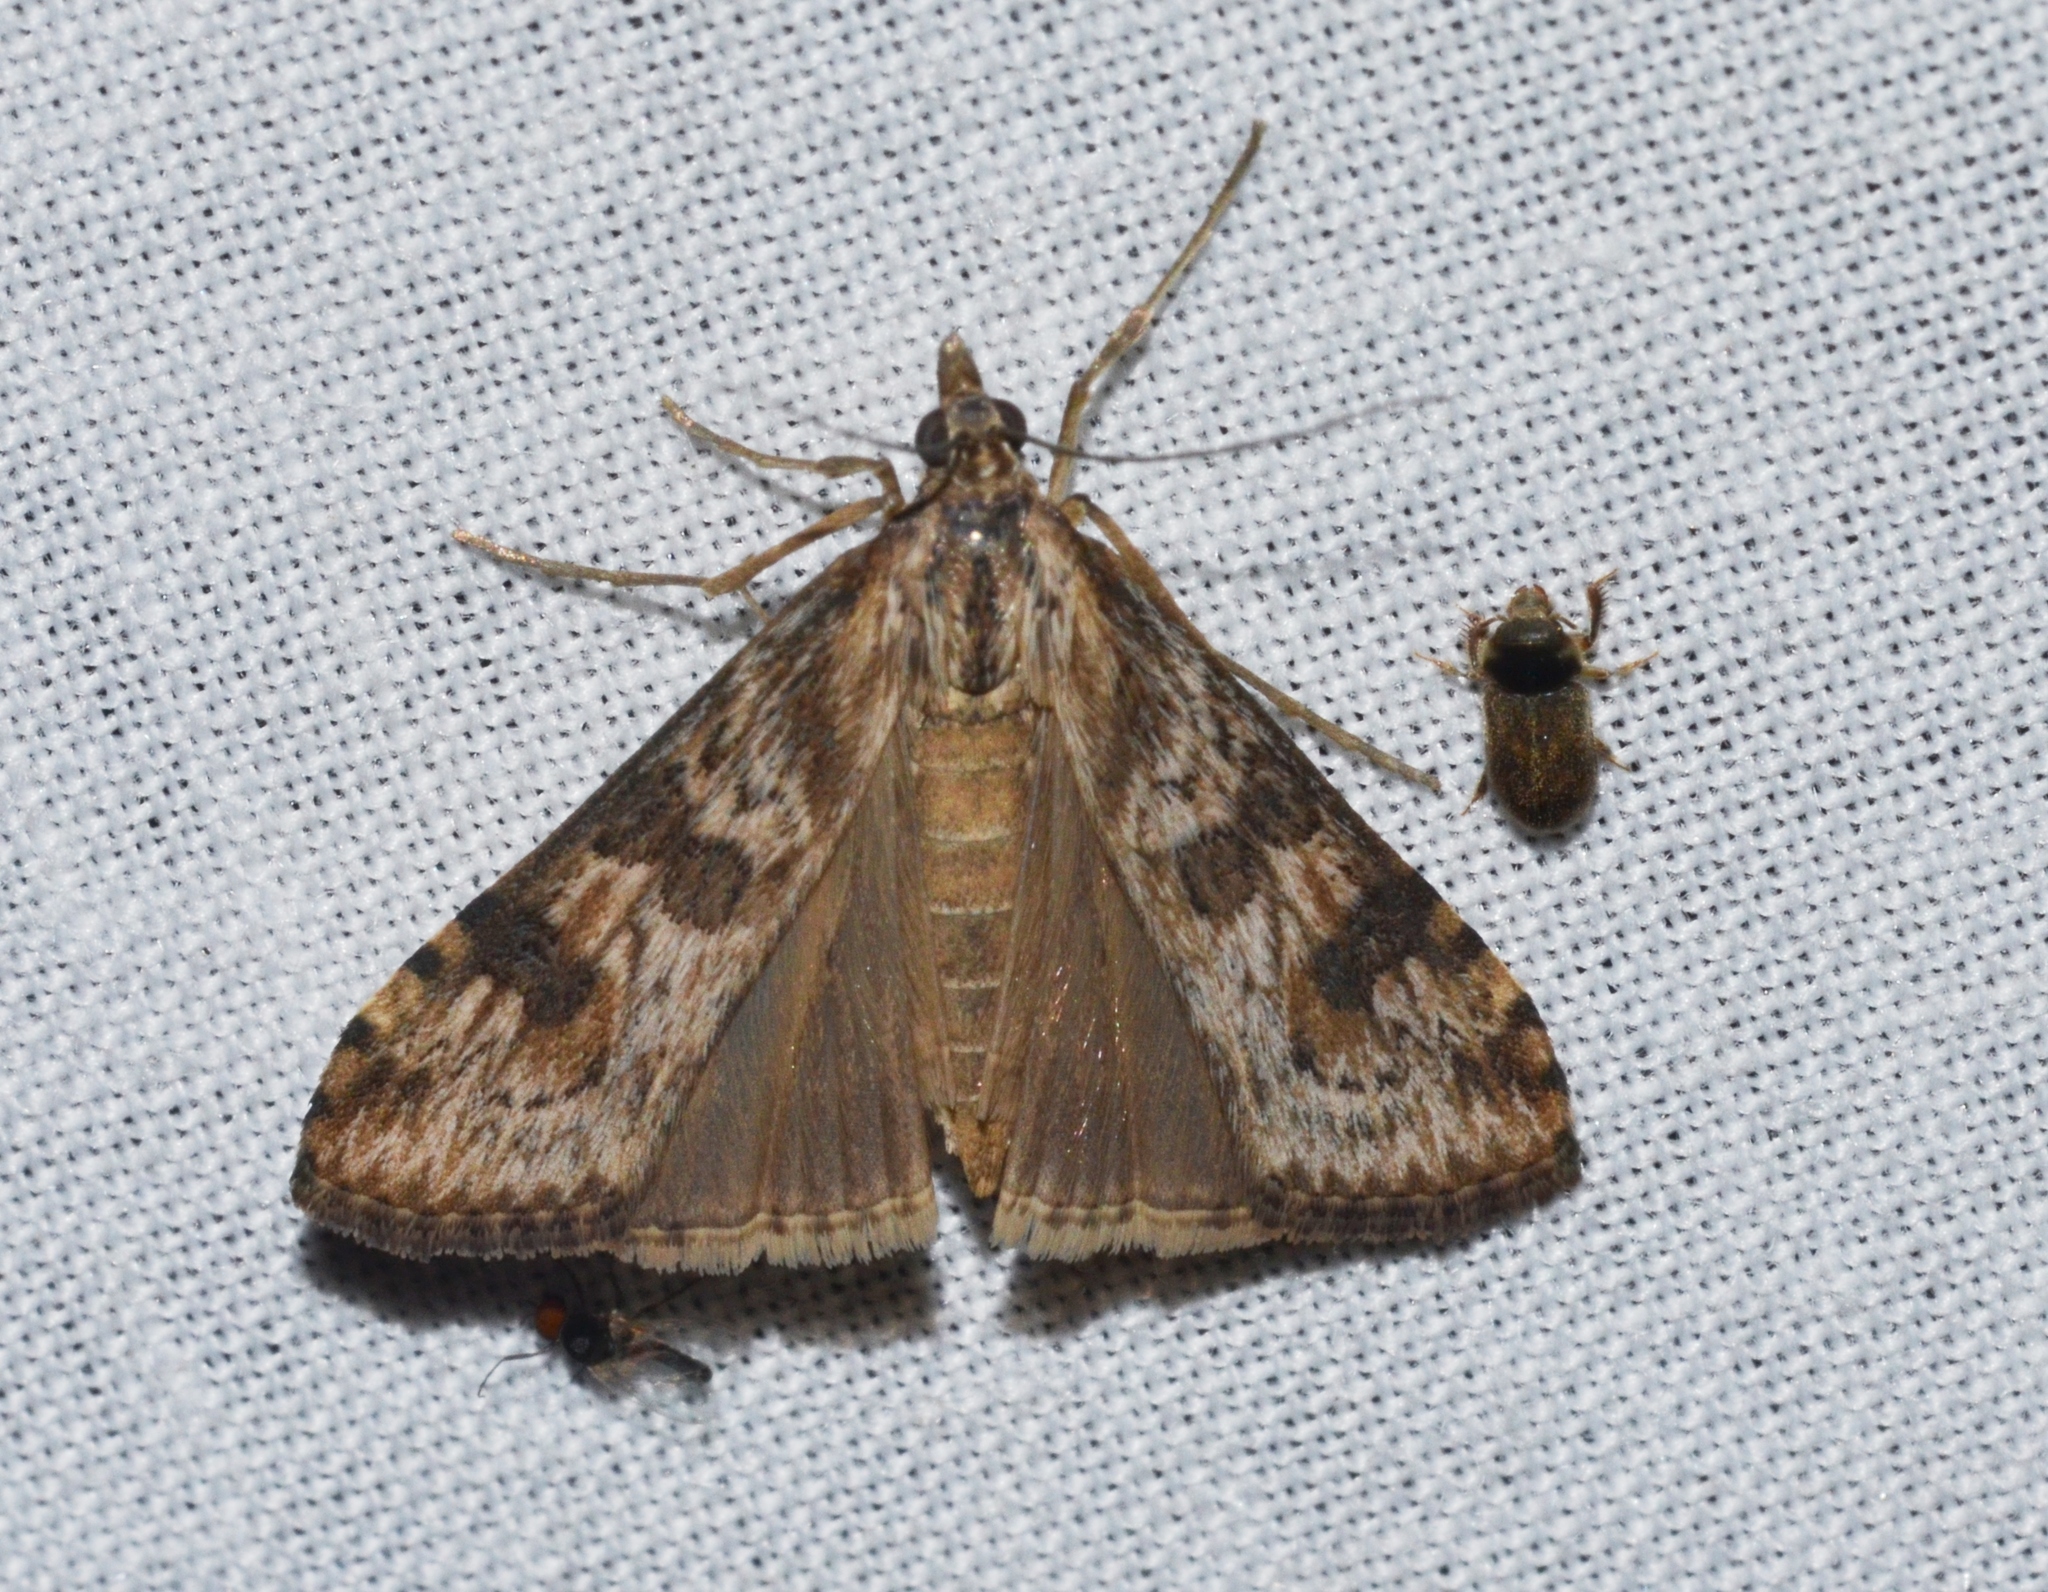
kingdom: Animalia
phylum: Arthropoda
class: Insecta
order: Lepidoptera
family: Crambidae
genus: Nomophila
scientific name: Nomophila nearctica
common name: American rush veneer
